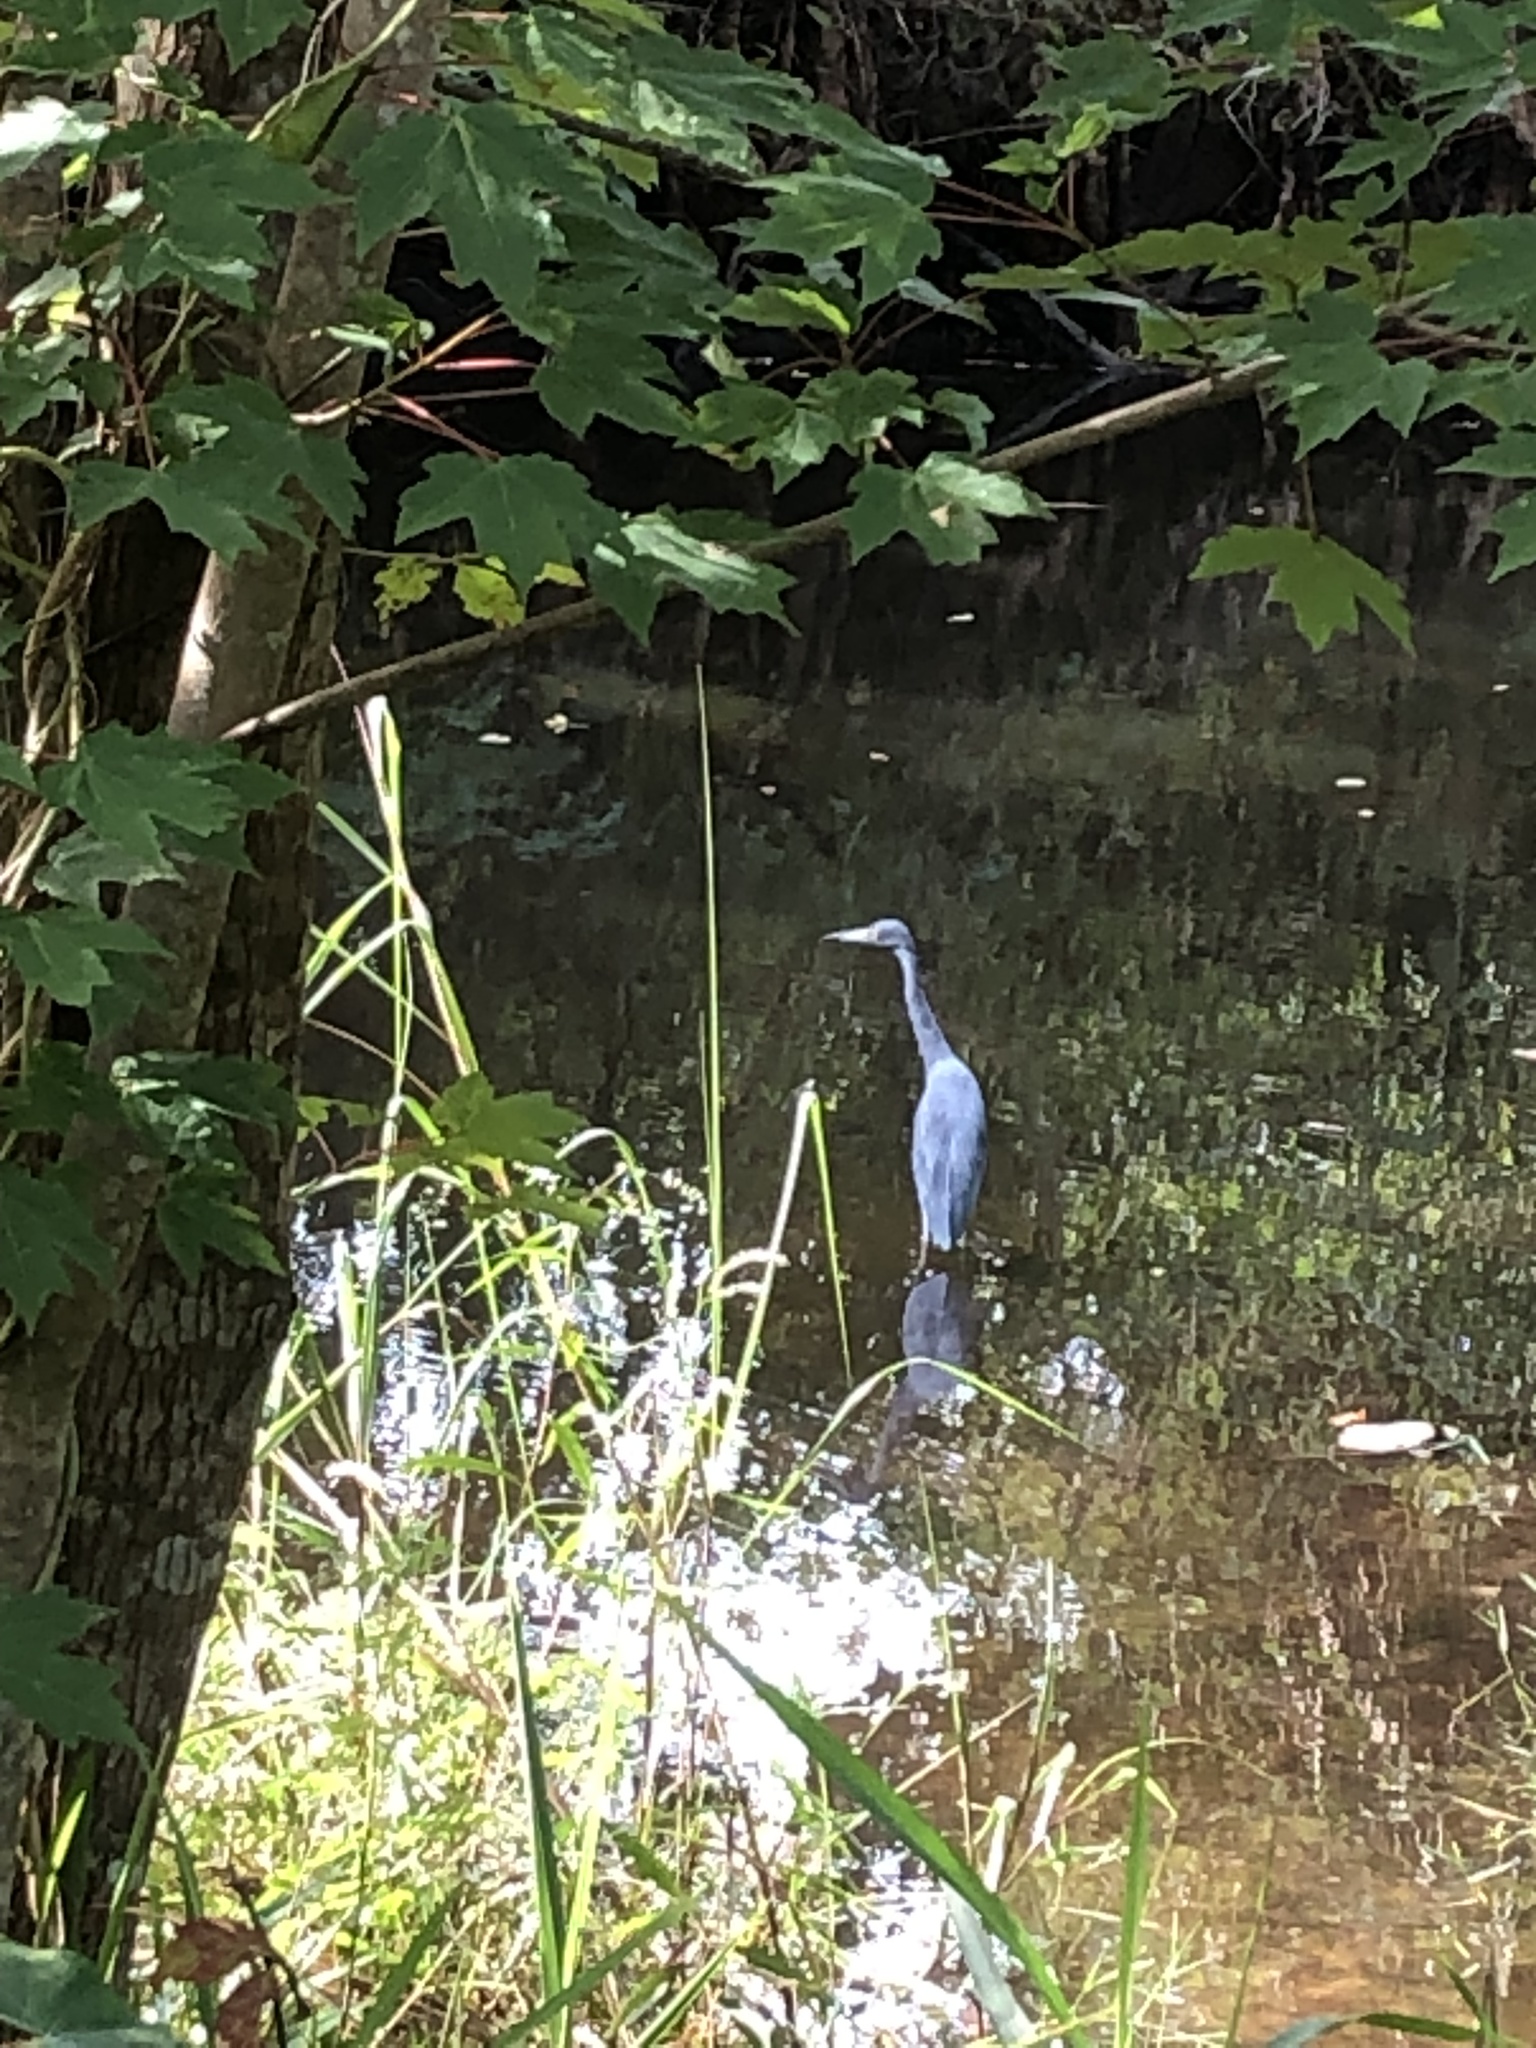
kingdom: Animalia
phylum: Chordata
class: Aves
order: Pelecaniformes
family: Ardeidae
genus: Egretta
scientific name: Egretta caerulea
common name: Little blue heron
